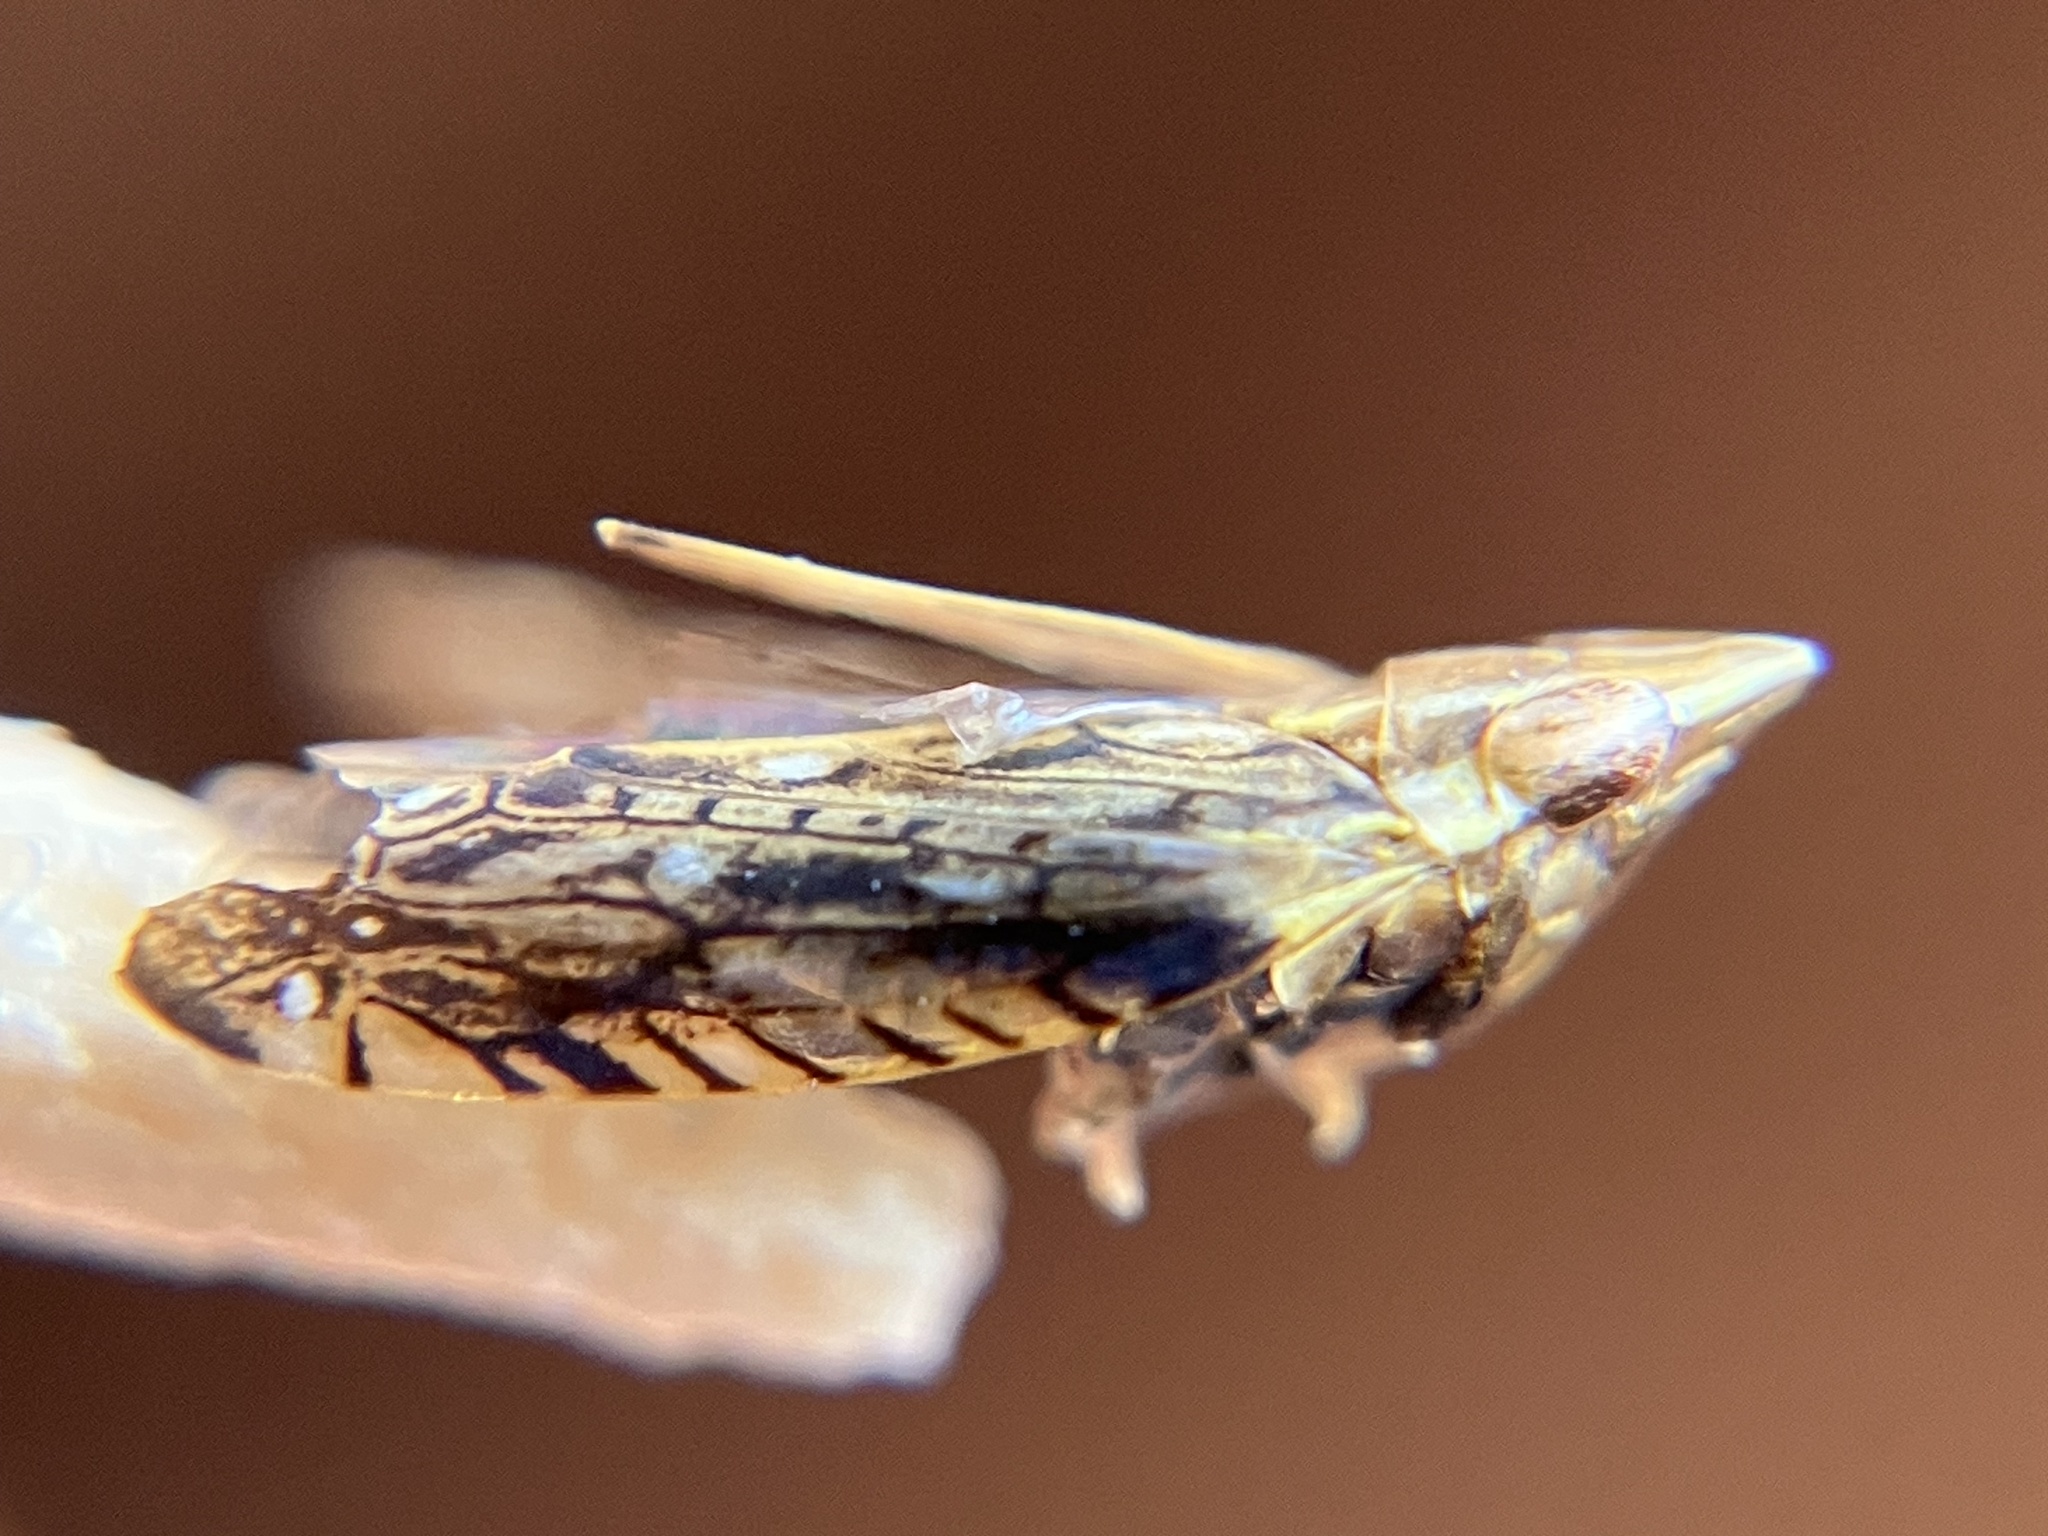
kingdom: Animalia
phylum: Arthropoda
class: Insecta
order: Hemiptera
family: Cicadellidae
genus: Thryaksha
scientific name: Thryaksha recurvatus
